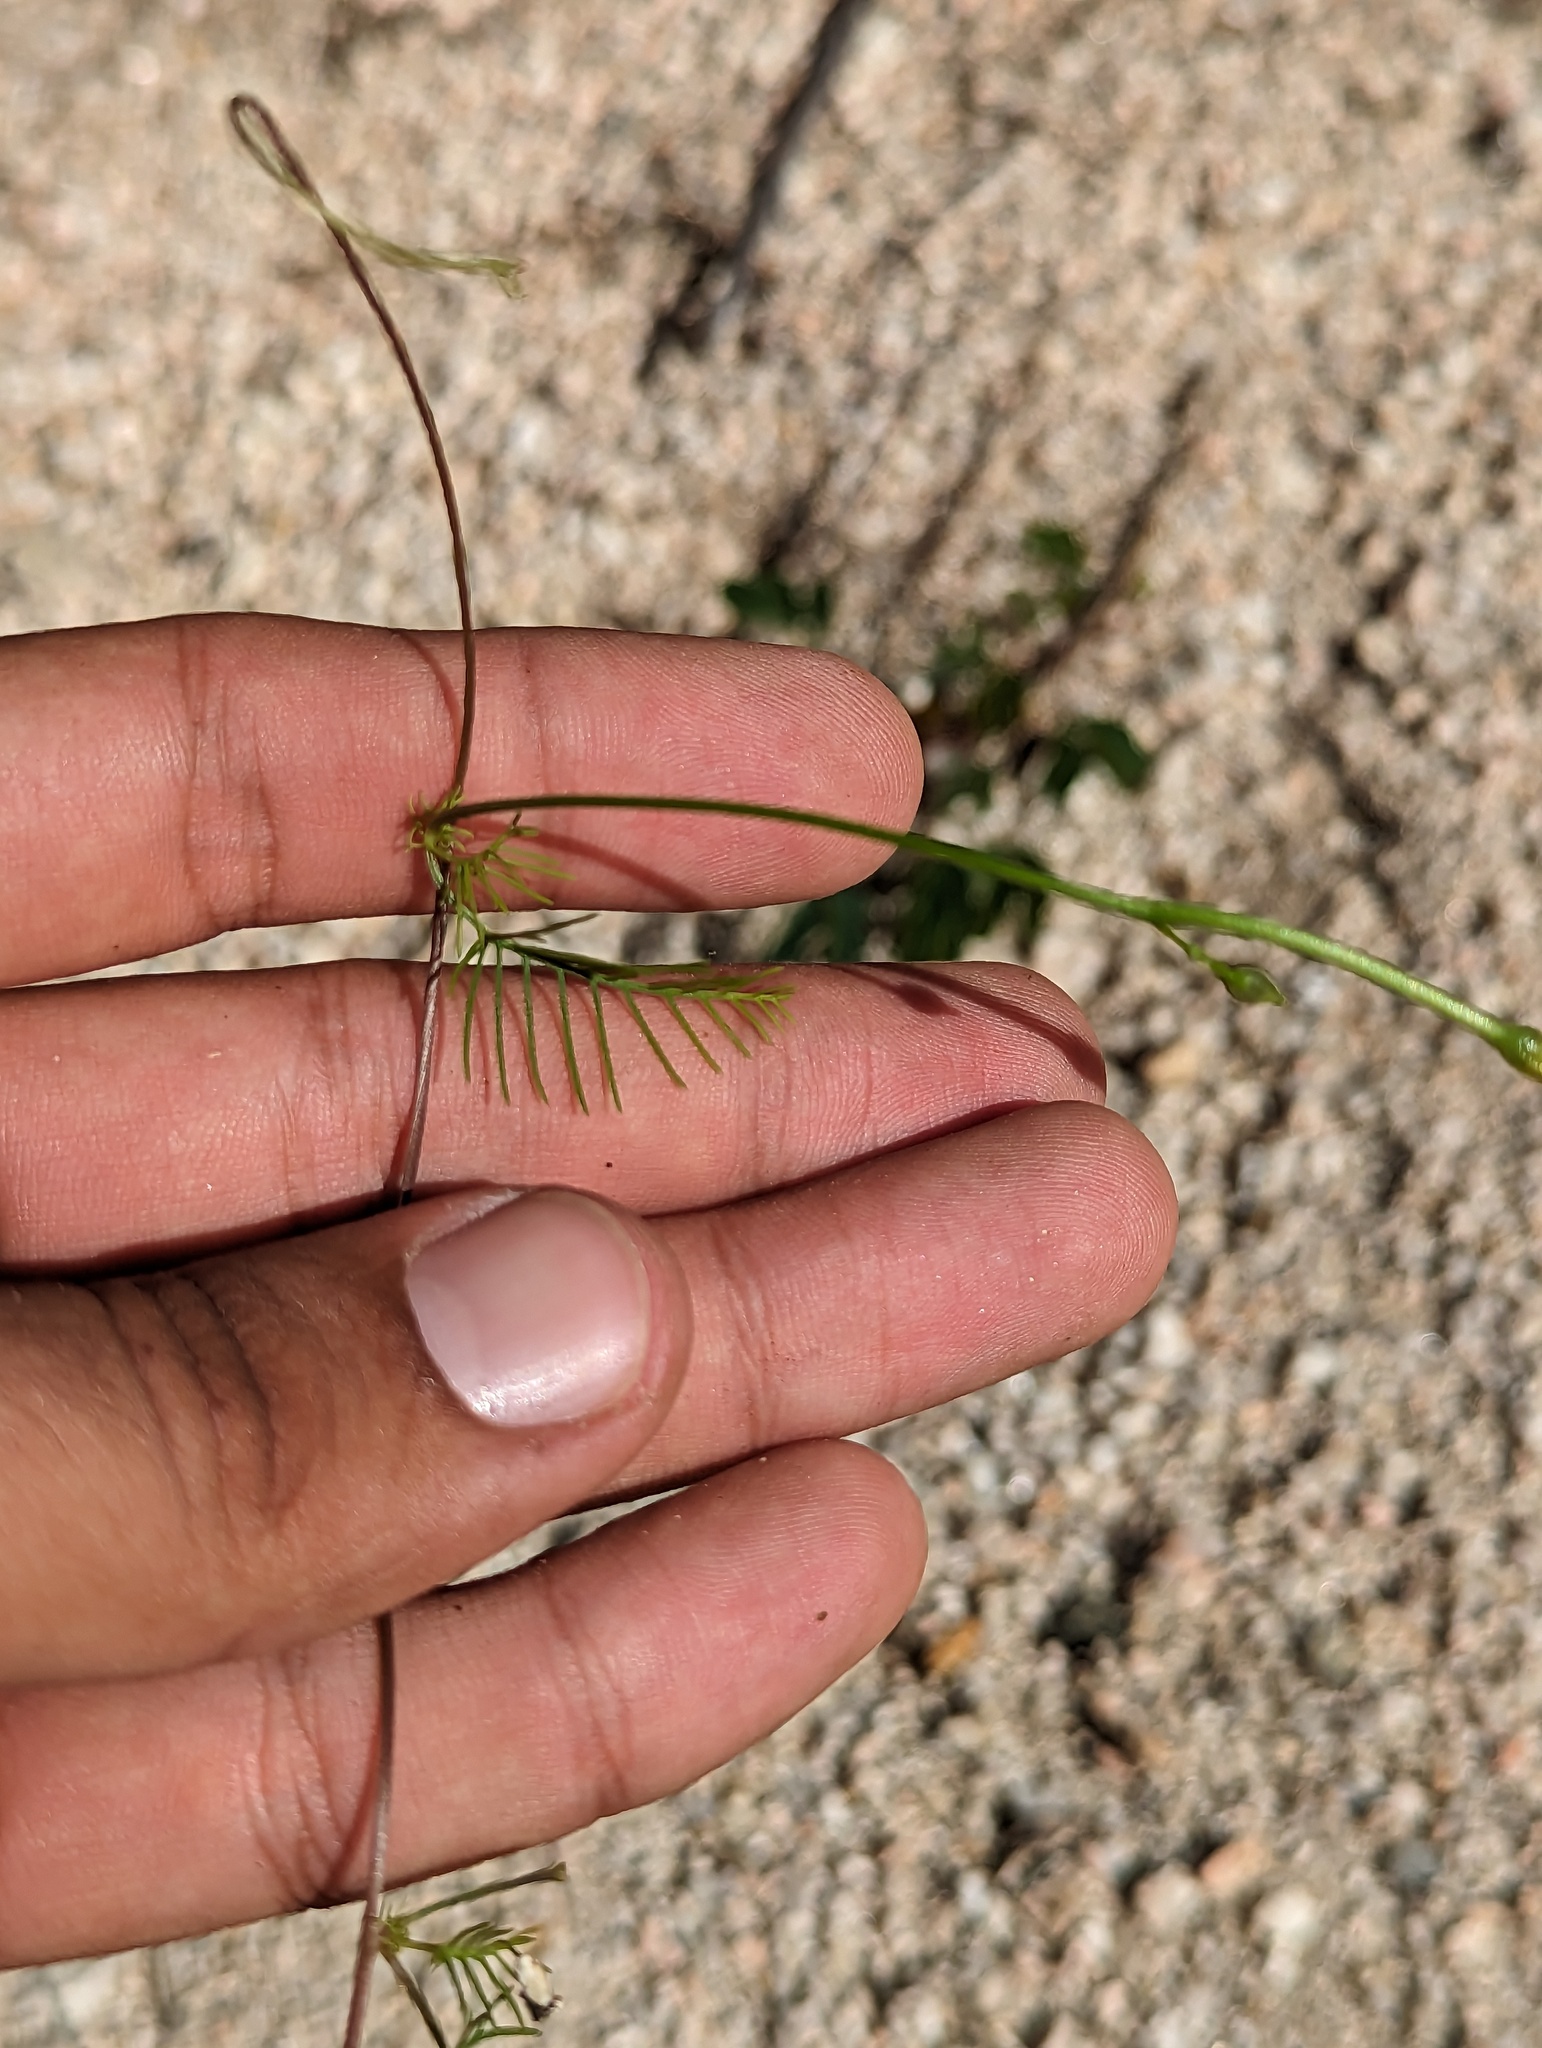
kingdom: Plantae
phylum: Tracheophyta
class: Magnoliopsida
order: Solanales
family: Convolvulaceae
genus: Ipomoea
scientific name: Ipomoea quamoclit
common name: Cypress vine
